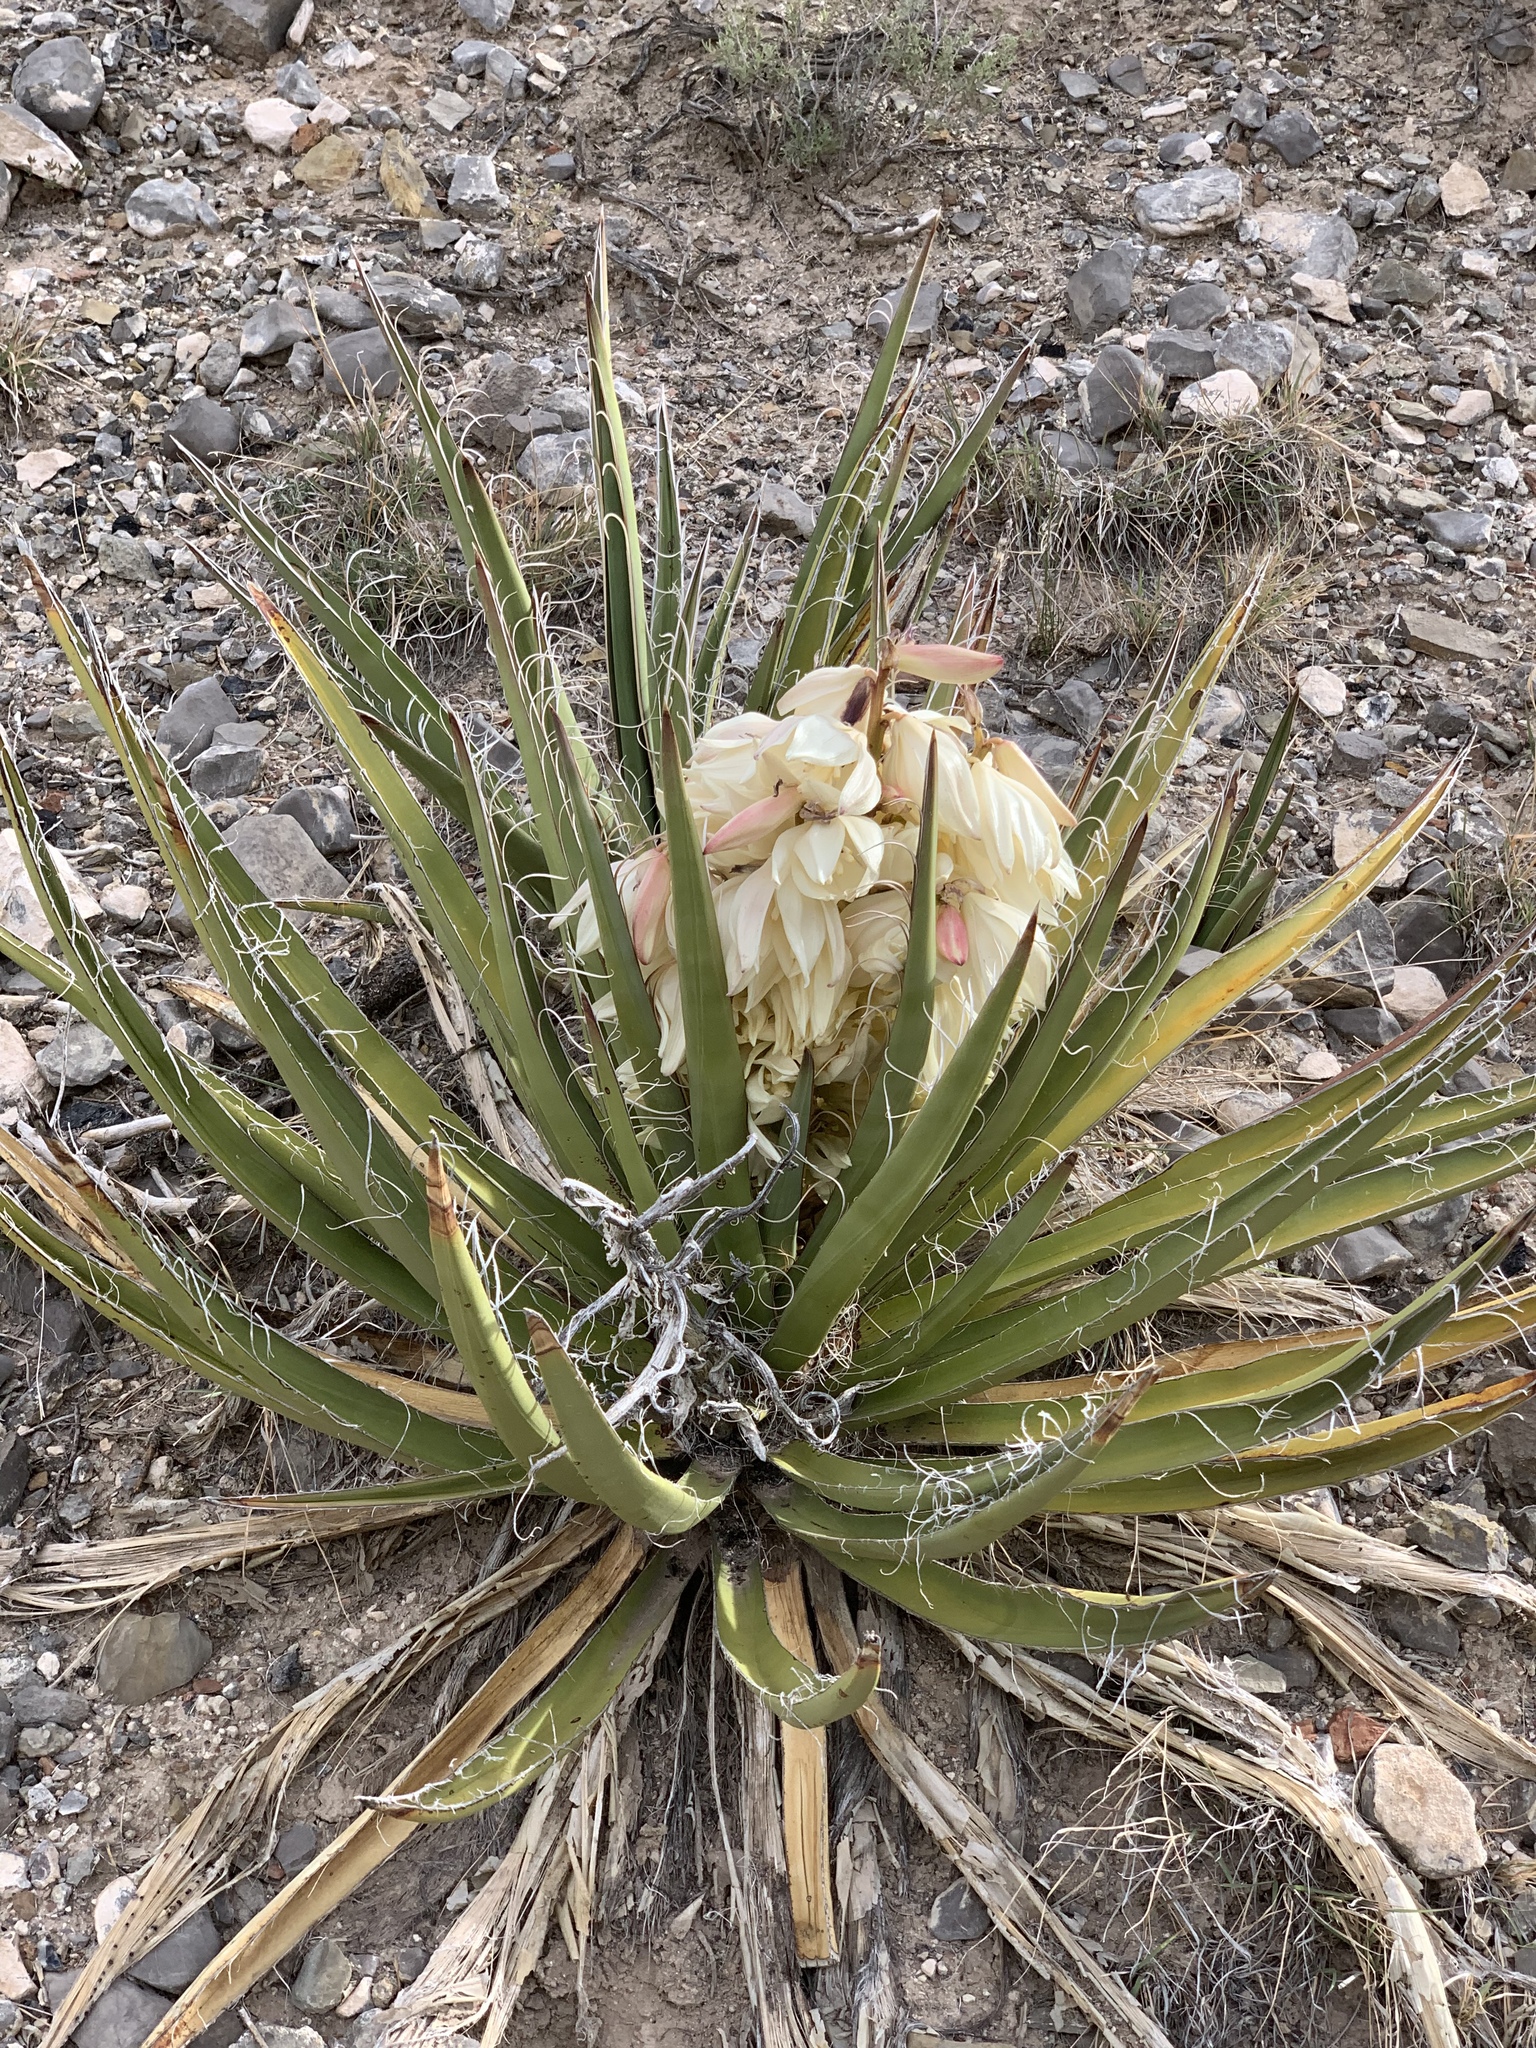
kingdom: Plantae
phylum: Tracheophyta
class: Liliopsida
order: Asparagales
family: Asparagaceae
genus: Yucca
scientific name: Yucca baccata
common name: Banana yucca
